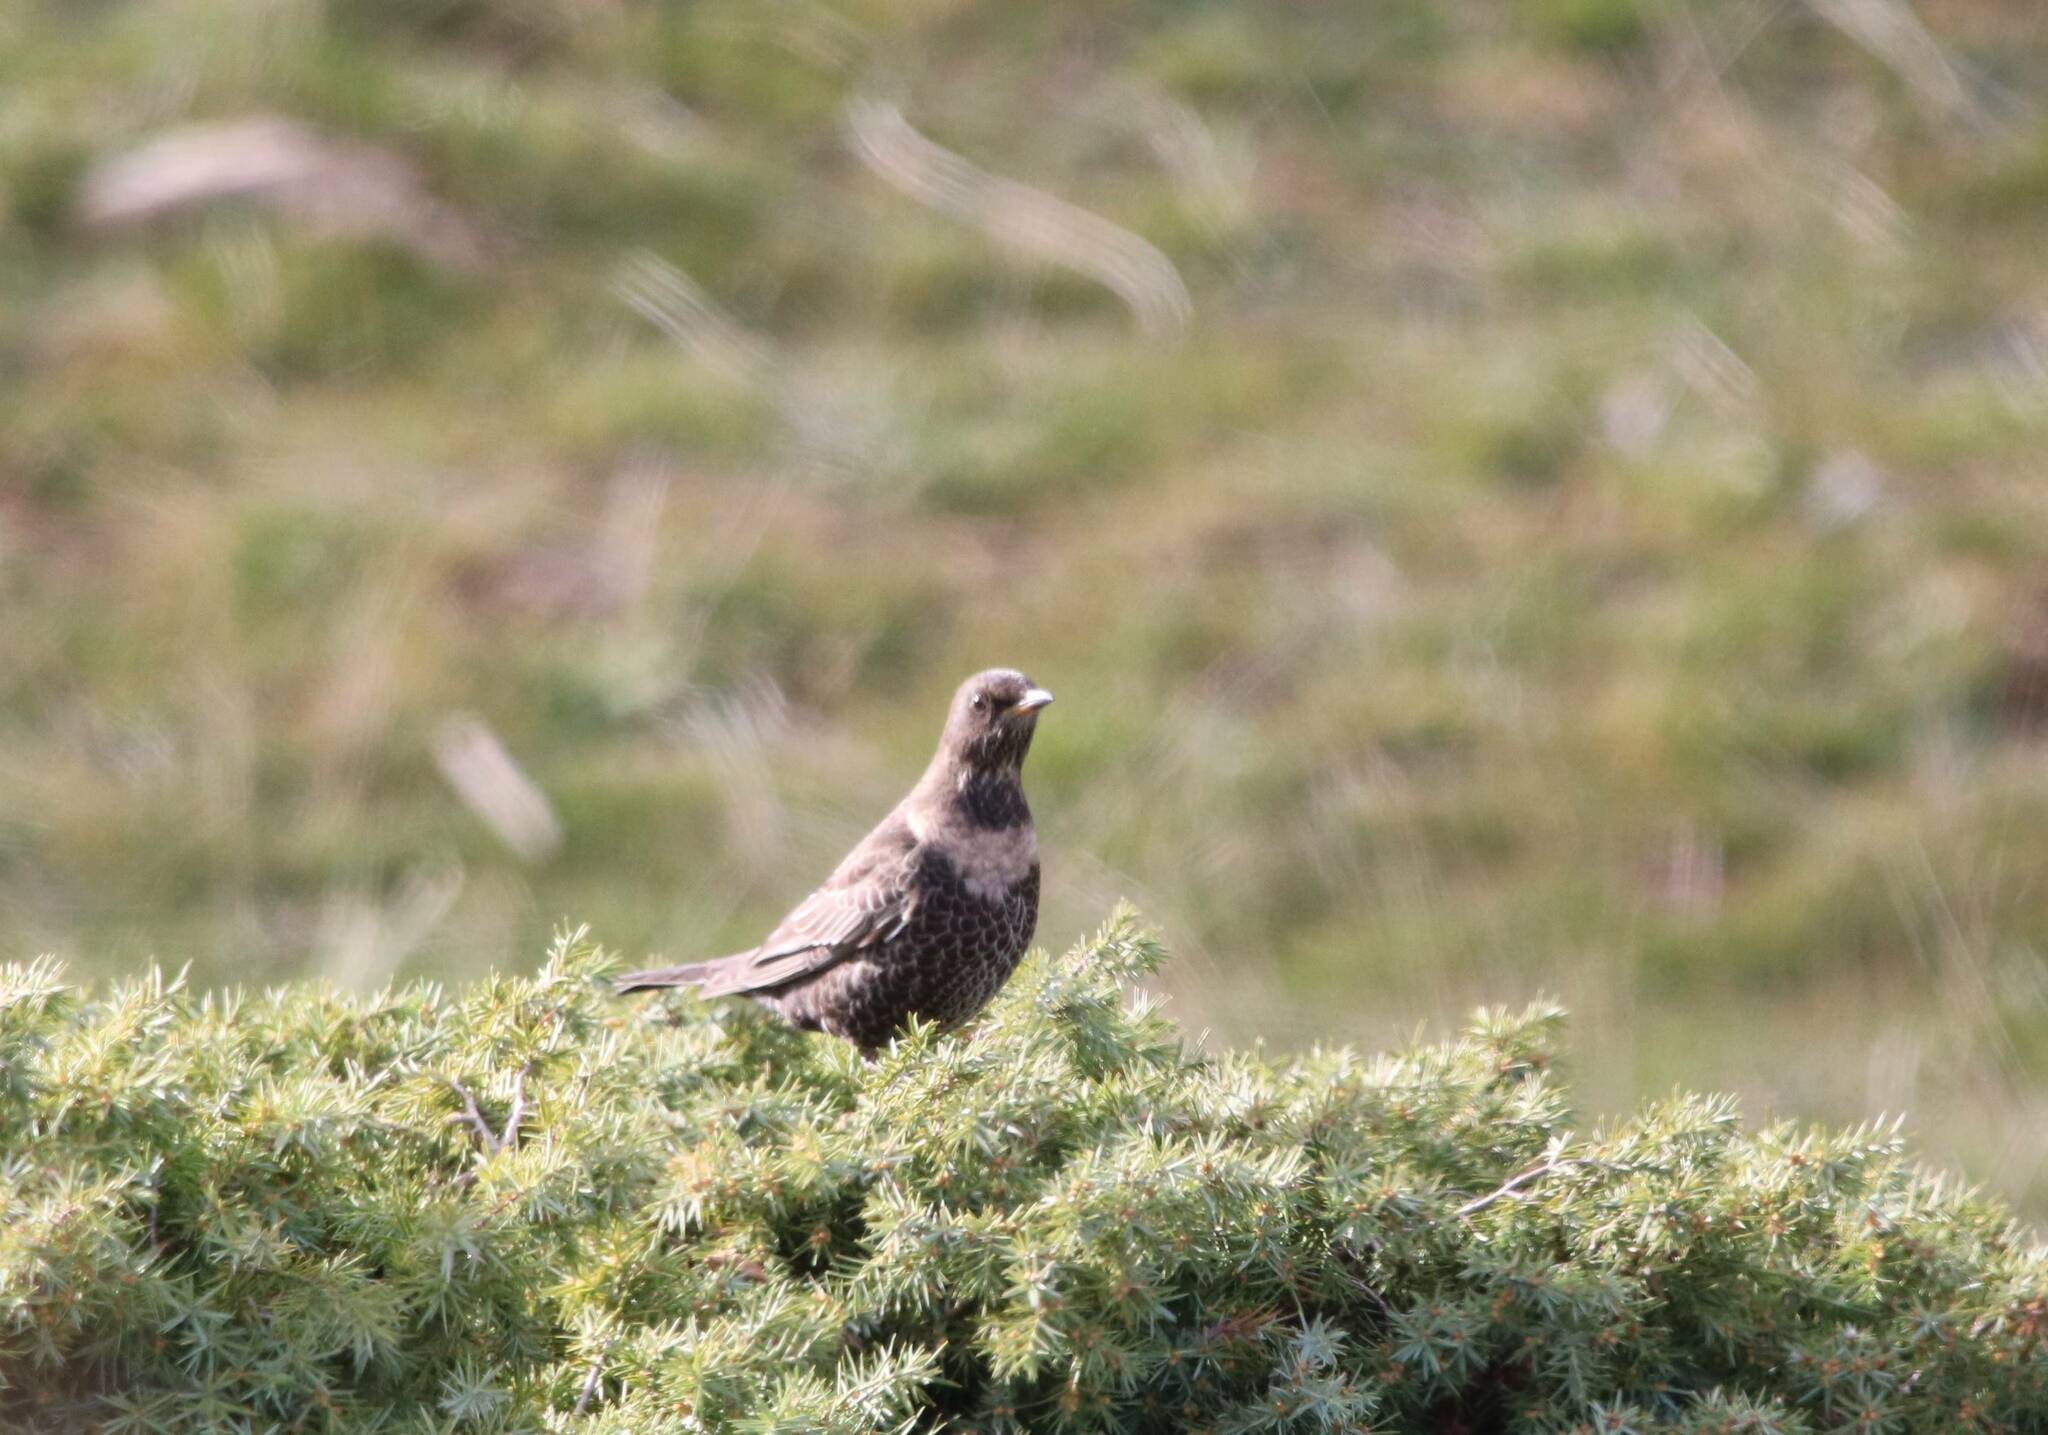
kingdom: Animalia
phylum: Chordata
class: Aves
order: Passeriformes
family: Turdidae
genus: Turdus
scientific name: Turdus torquatus
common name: Ring ouzel
